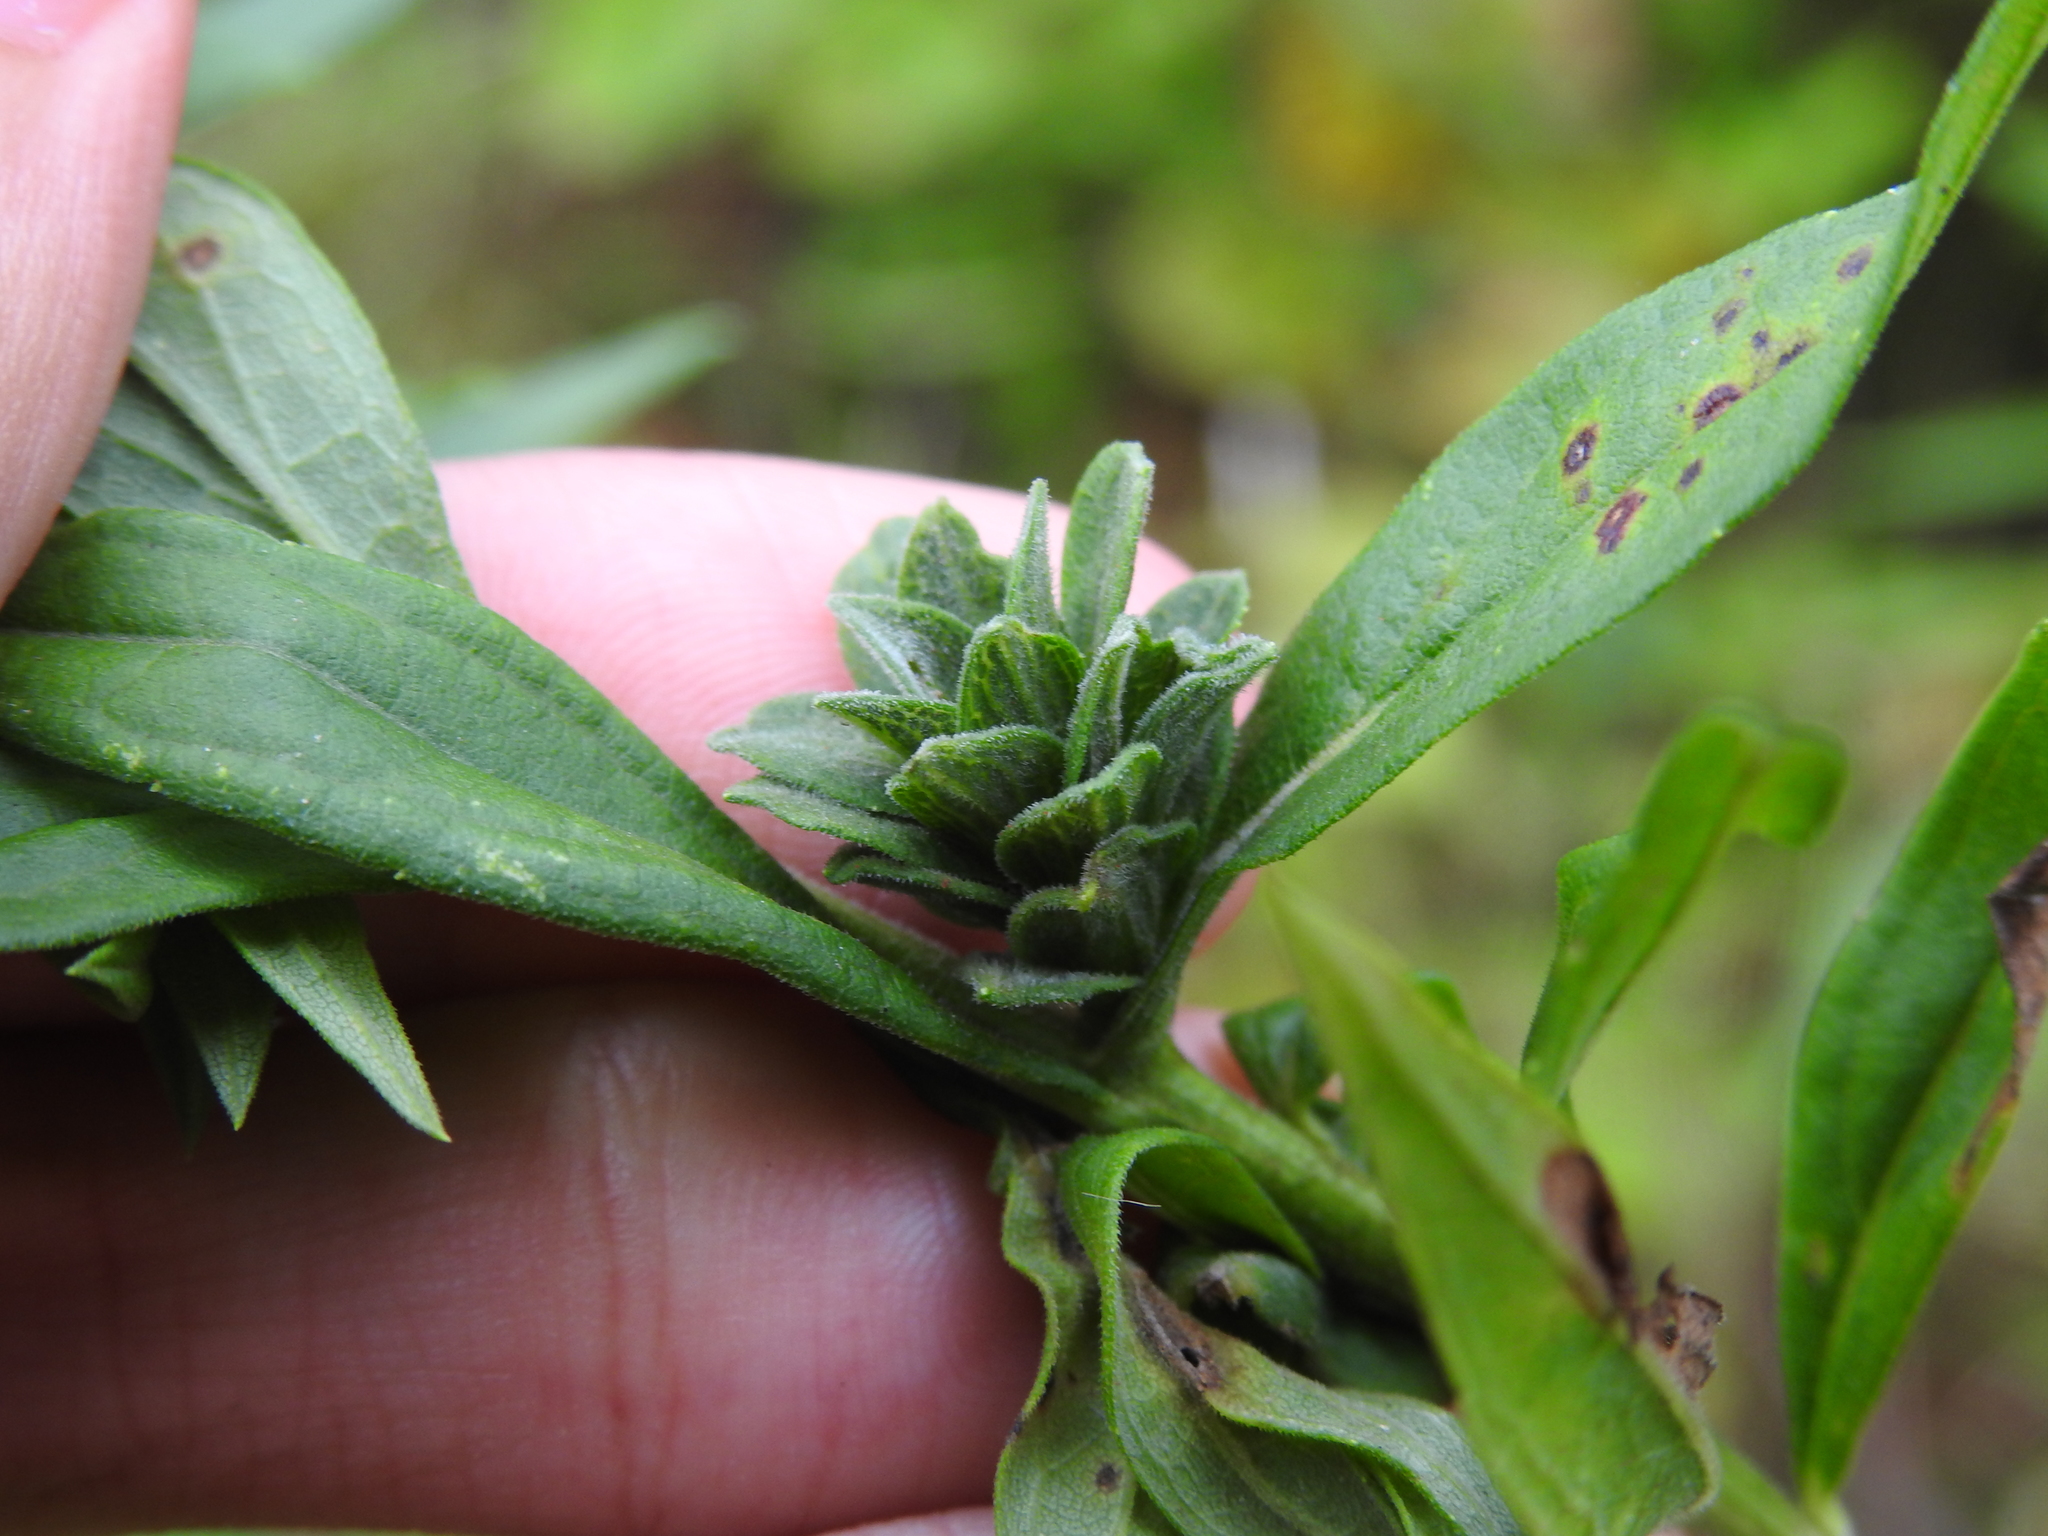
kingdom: Animalia
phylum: Arthropoda
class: Insecta
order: Diptera
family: Cecidomyiidae
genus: Asphondylia
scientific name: Asphondylia solidaginis
